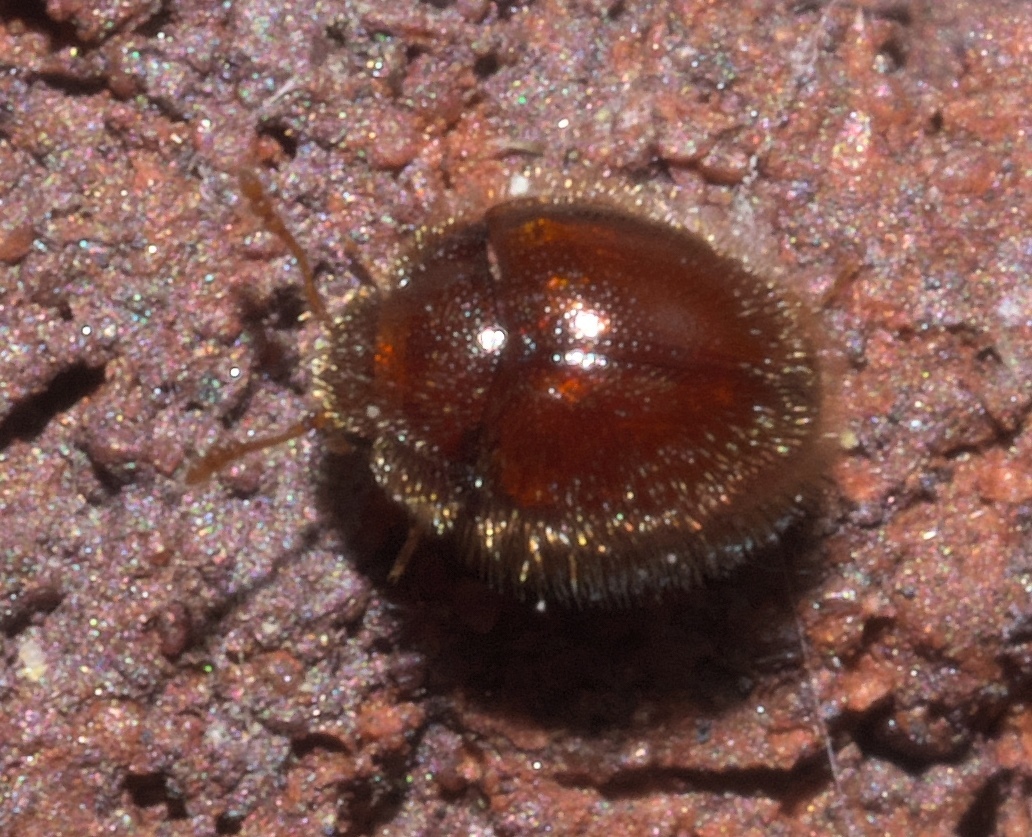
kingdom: Animalia
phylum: Arthropoda
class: Insecta
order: Coleoptera
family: Anamorphidae
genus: Clemmus
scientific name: Clemmus minor
